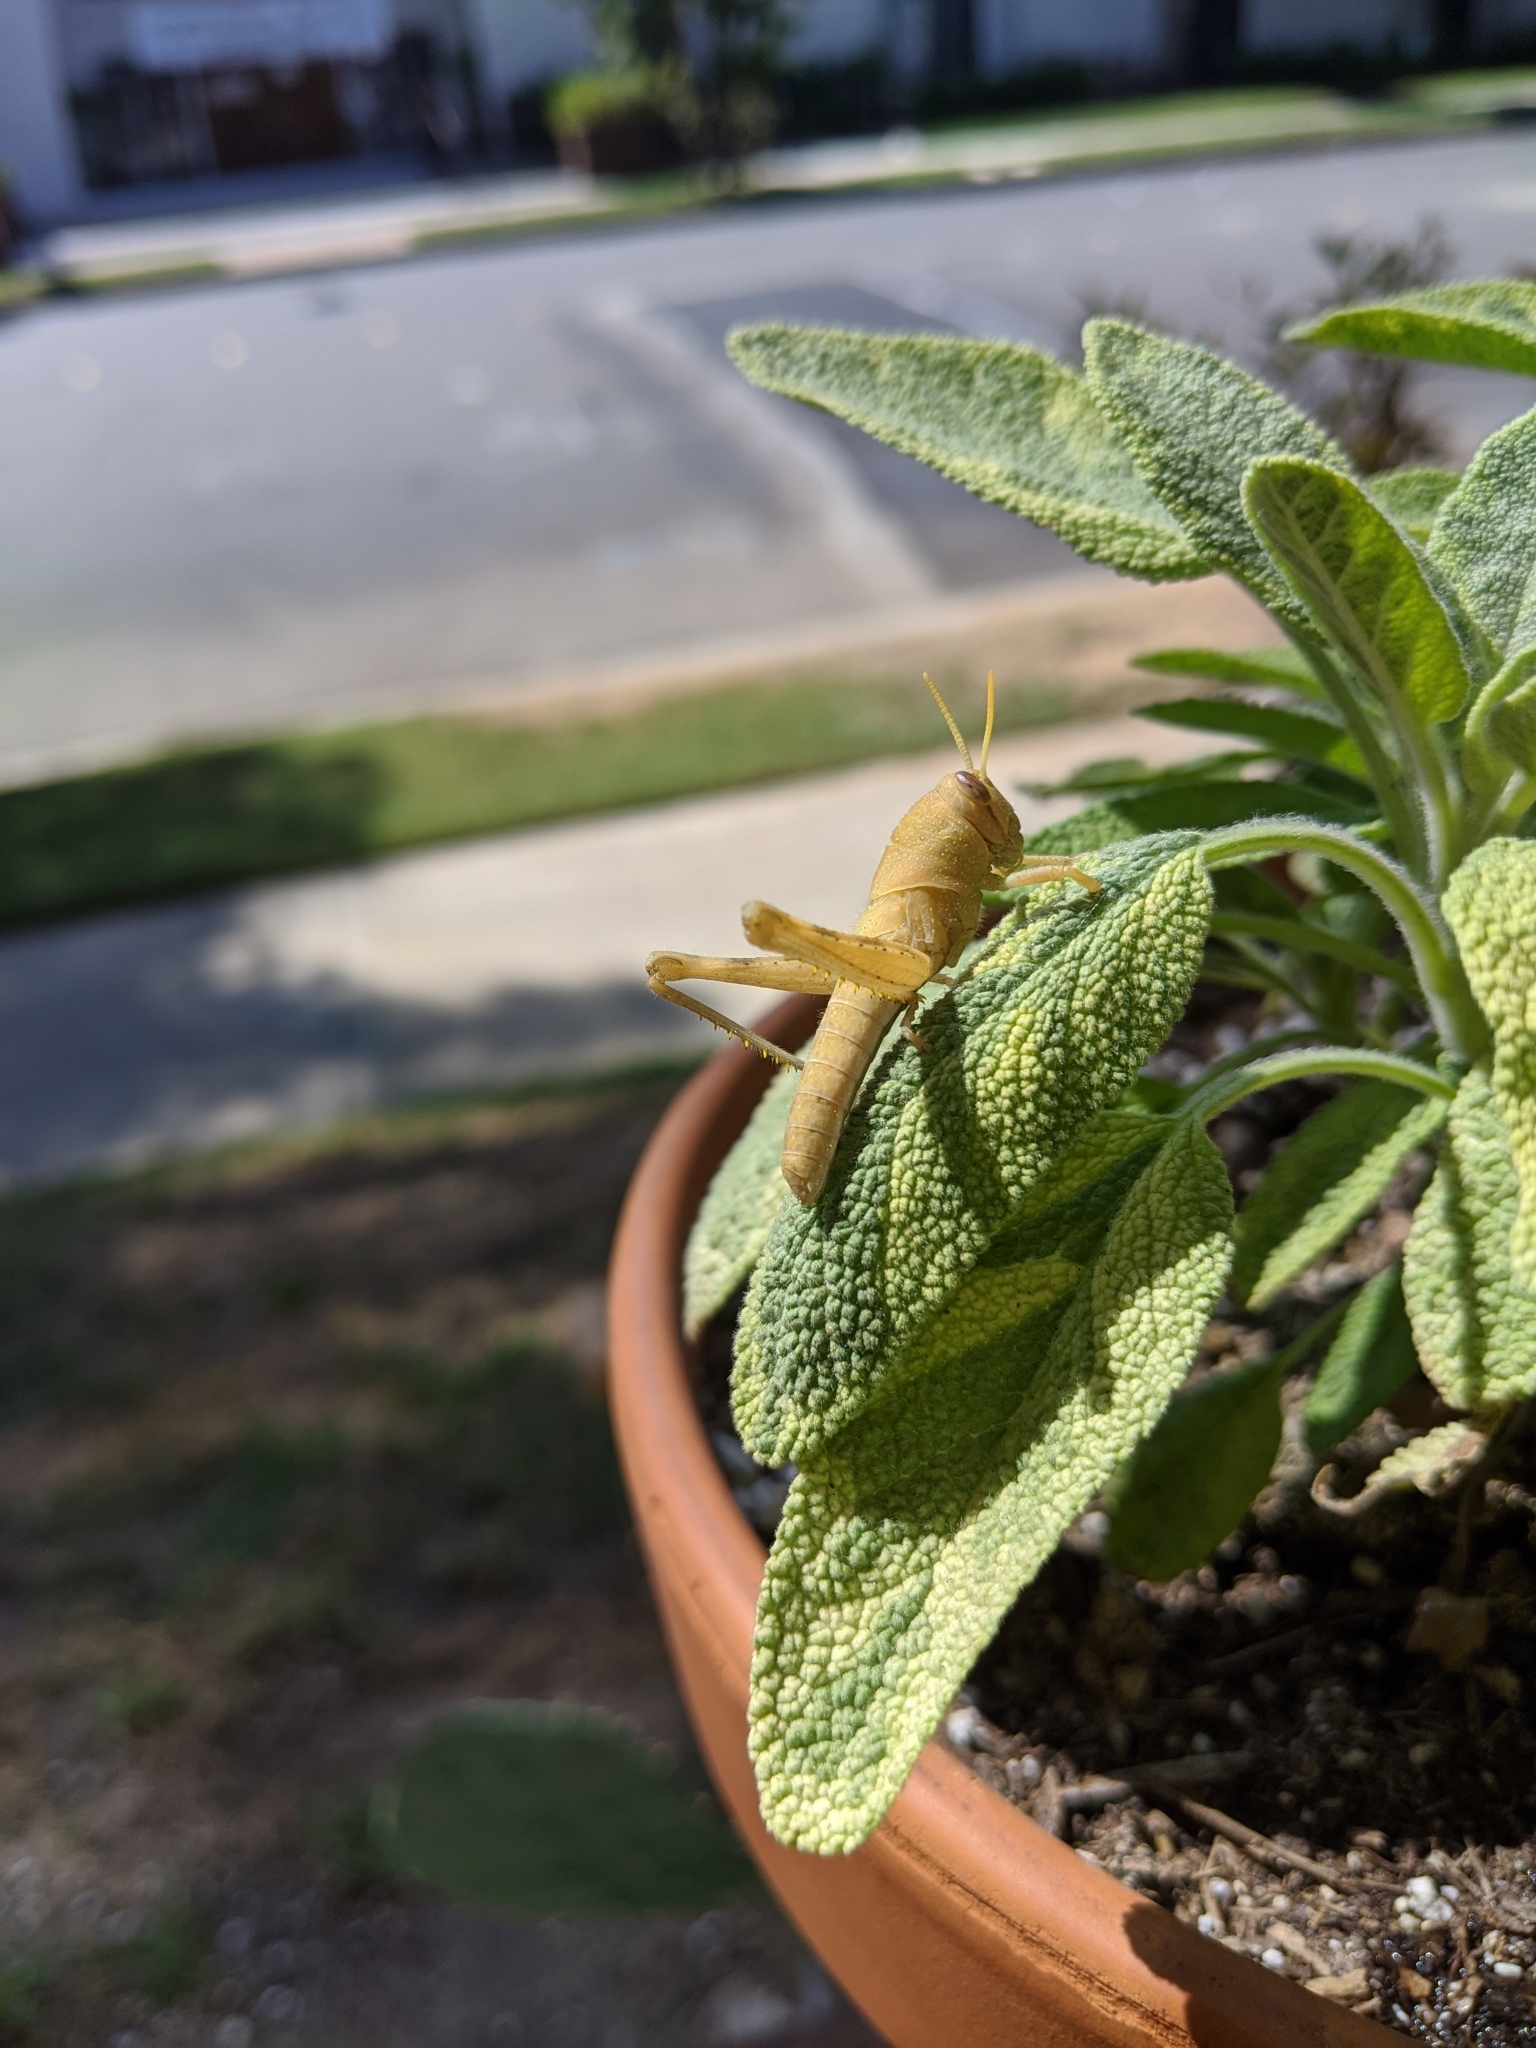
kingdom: Animalia
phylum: Arthropoda
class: Insecta
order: Orthoptera
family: Acrididae
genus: Schistocerca
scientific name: Schistocerca nitens
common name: Vagrant grasshopper
